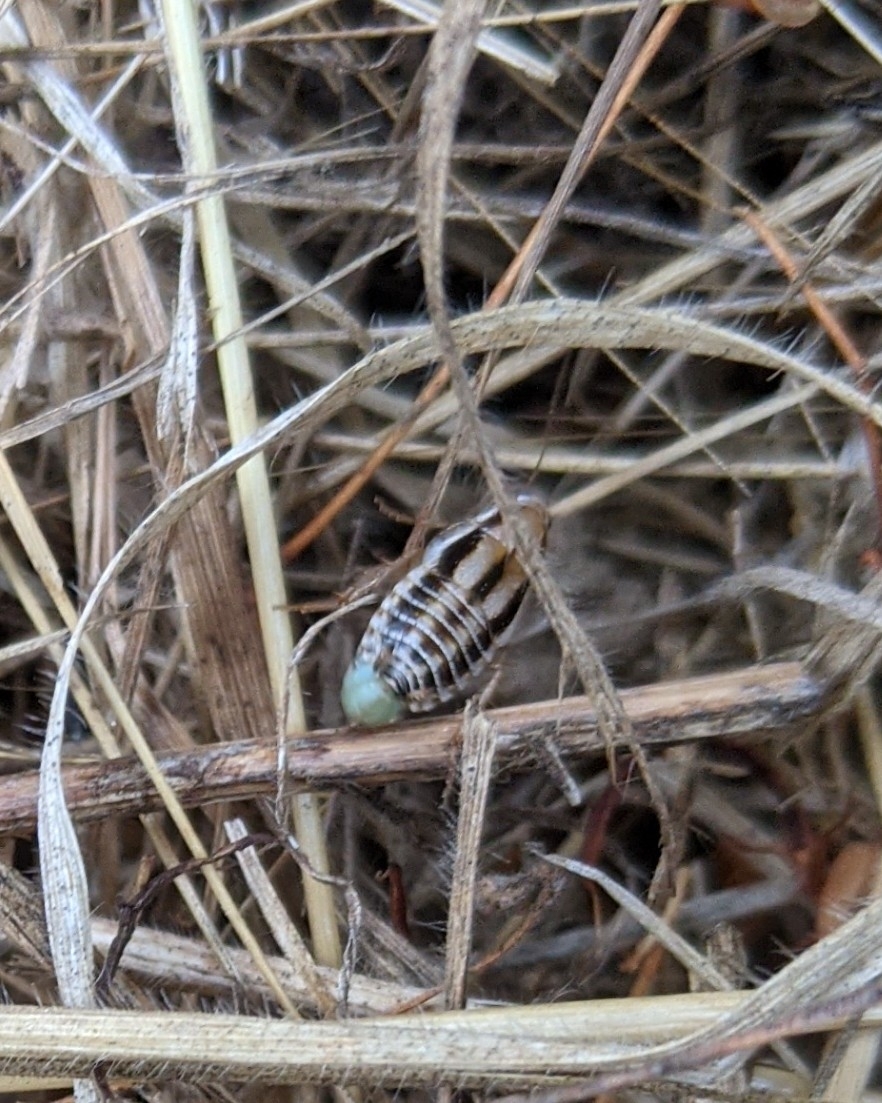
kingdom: Animalia
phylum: Arthropoda
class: Insecta
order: Blattodea
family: Ectobiidae
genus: Luridiblatta
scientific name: Luridiblatta trivittata
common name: Three-lined cockroach
